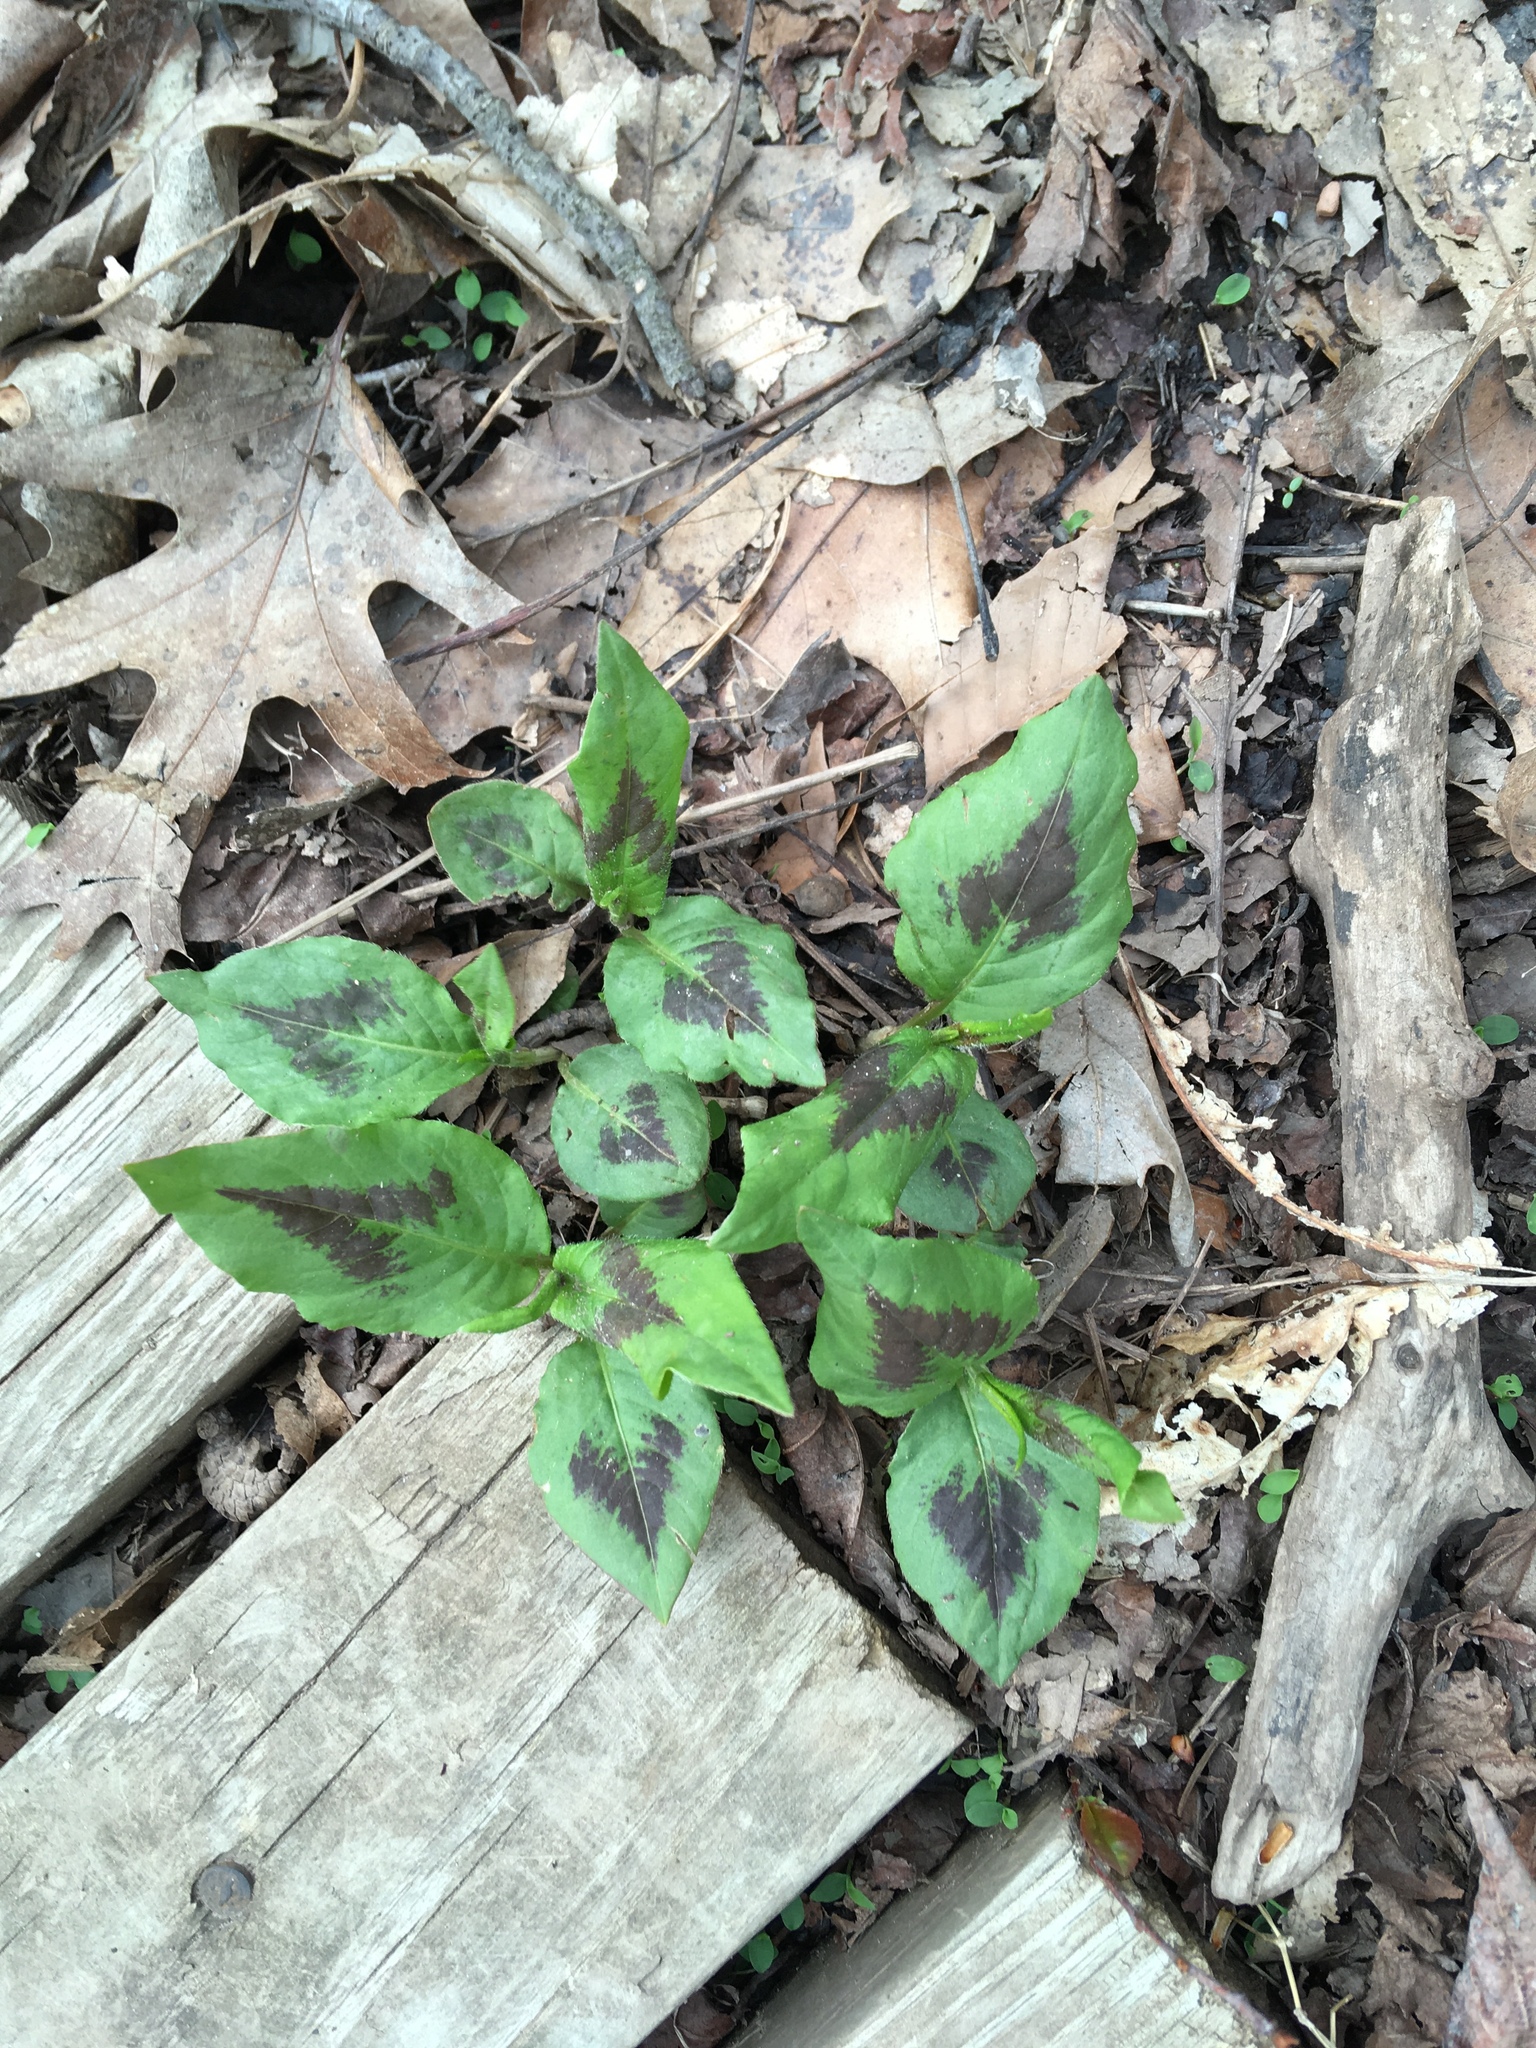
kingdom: Plantae
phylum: Tracheophyta
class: Magnoliopsida
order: Caryophyllales
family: Polygonaceae
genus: Persicaria
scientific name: Persicaria virginiana
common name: Jumpseed
